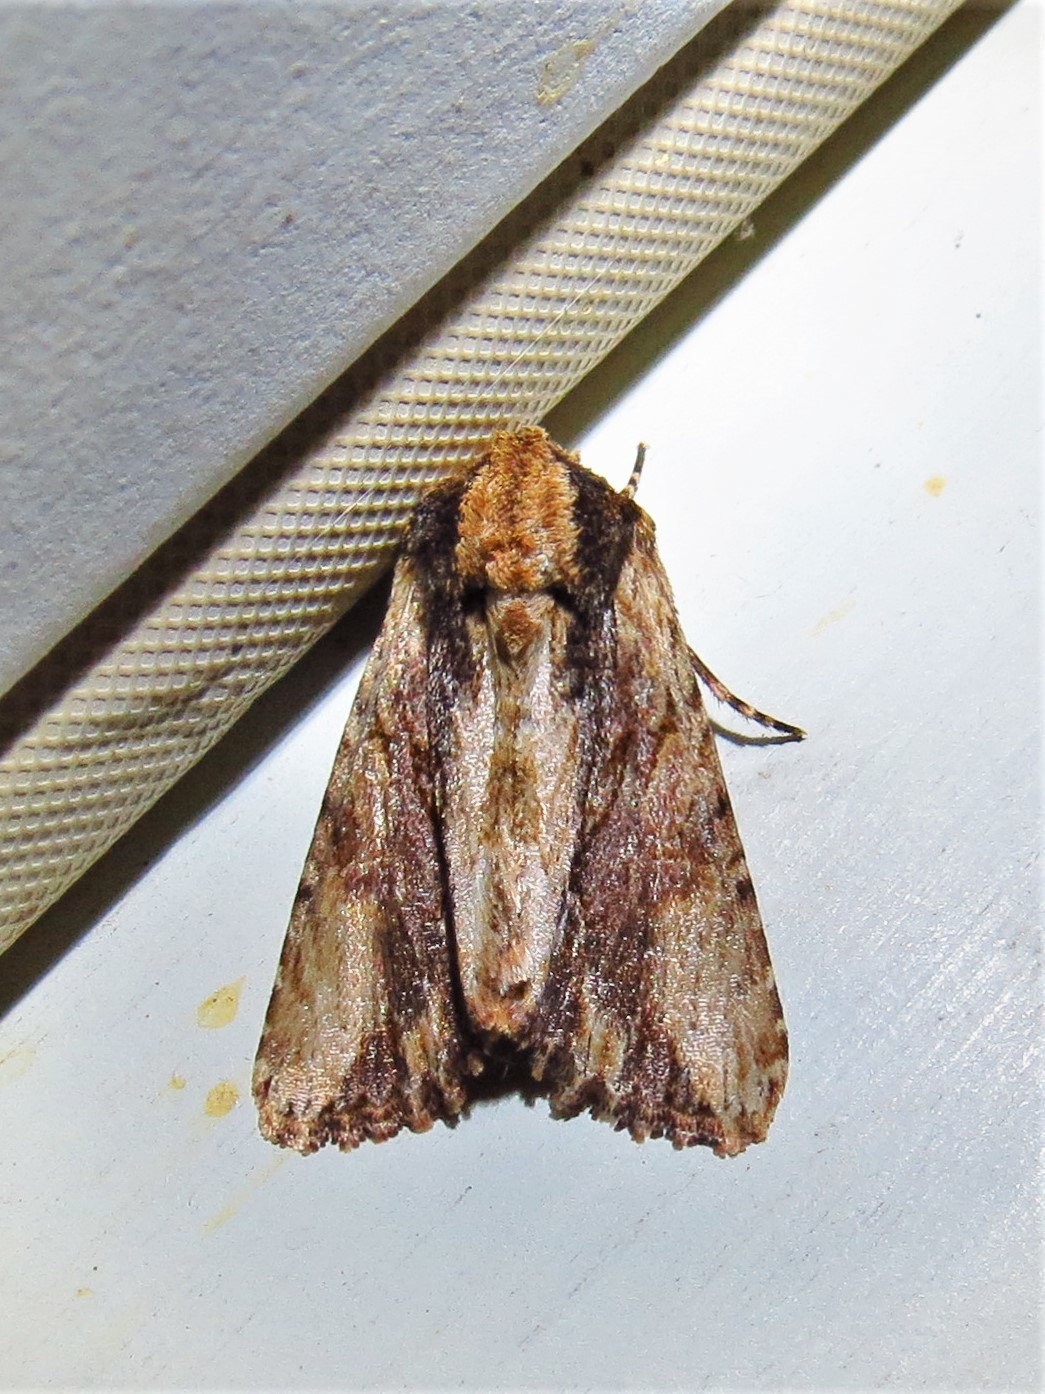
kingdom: Animalia
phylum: Arthropoda
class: Insecta
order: Lepidoptera
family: Noctuidae
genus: Achatia
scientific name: Achatia mucens
